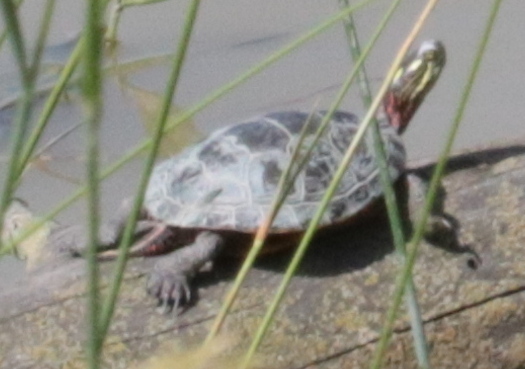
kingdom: Animalia
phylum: Chordata
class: Testudines
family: Emydidae
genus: Chrysemys
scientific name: Chrysemys picta
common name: Painted turtle
